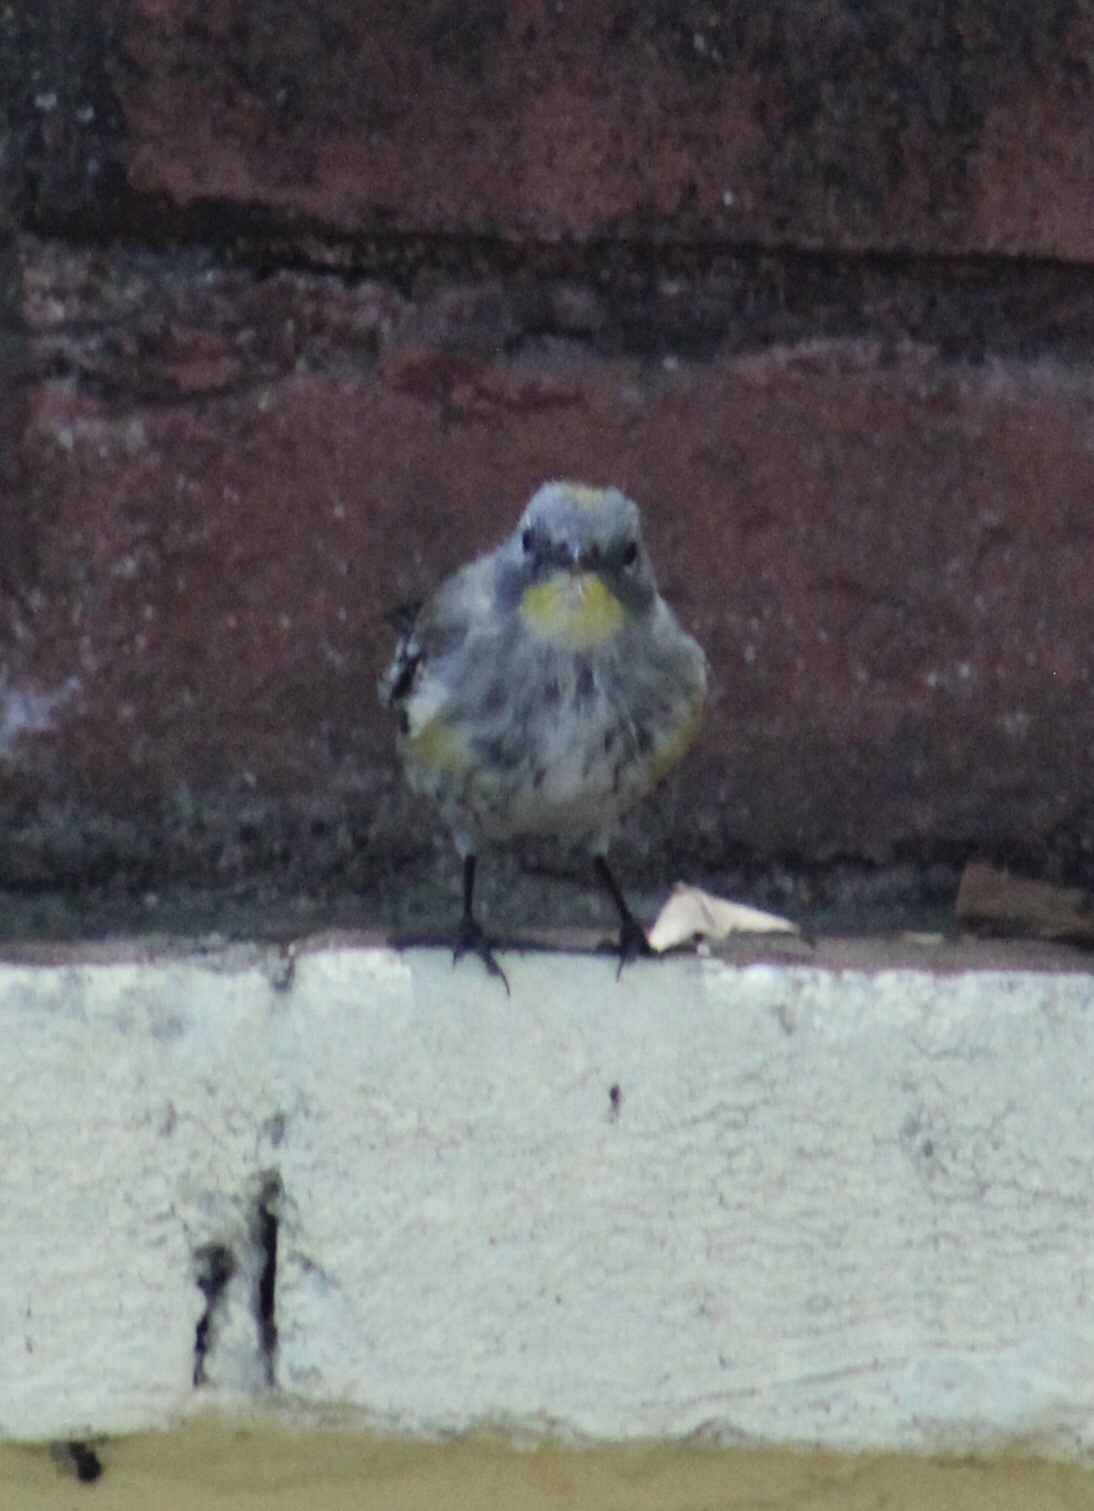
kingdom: Animalia
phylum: Chordata
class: Aves
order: Passeriformes
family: Parulidae
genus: Setophaga
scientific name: Setophaga coronata
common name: Myrtle warbler
